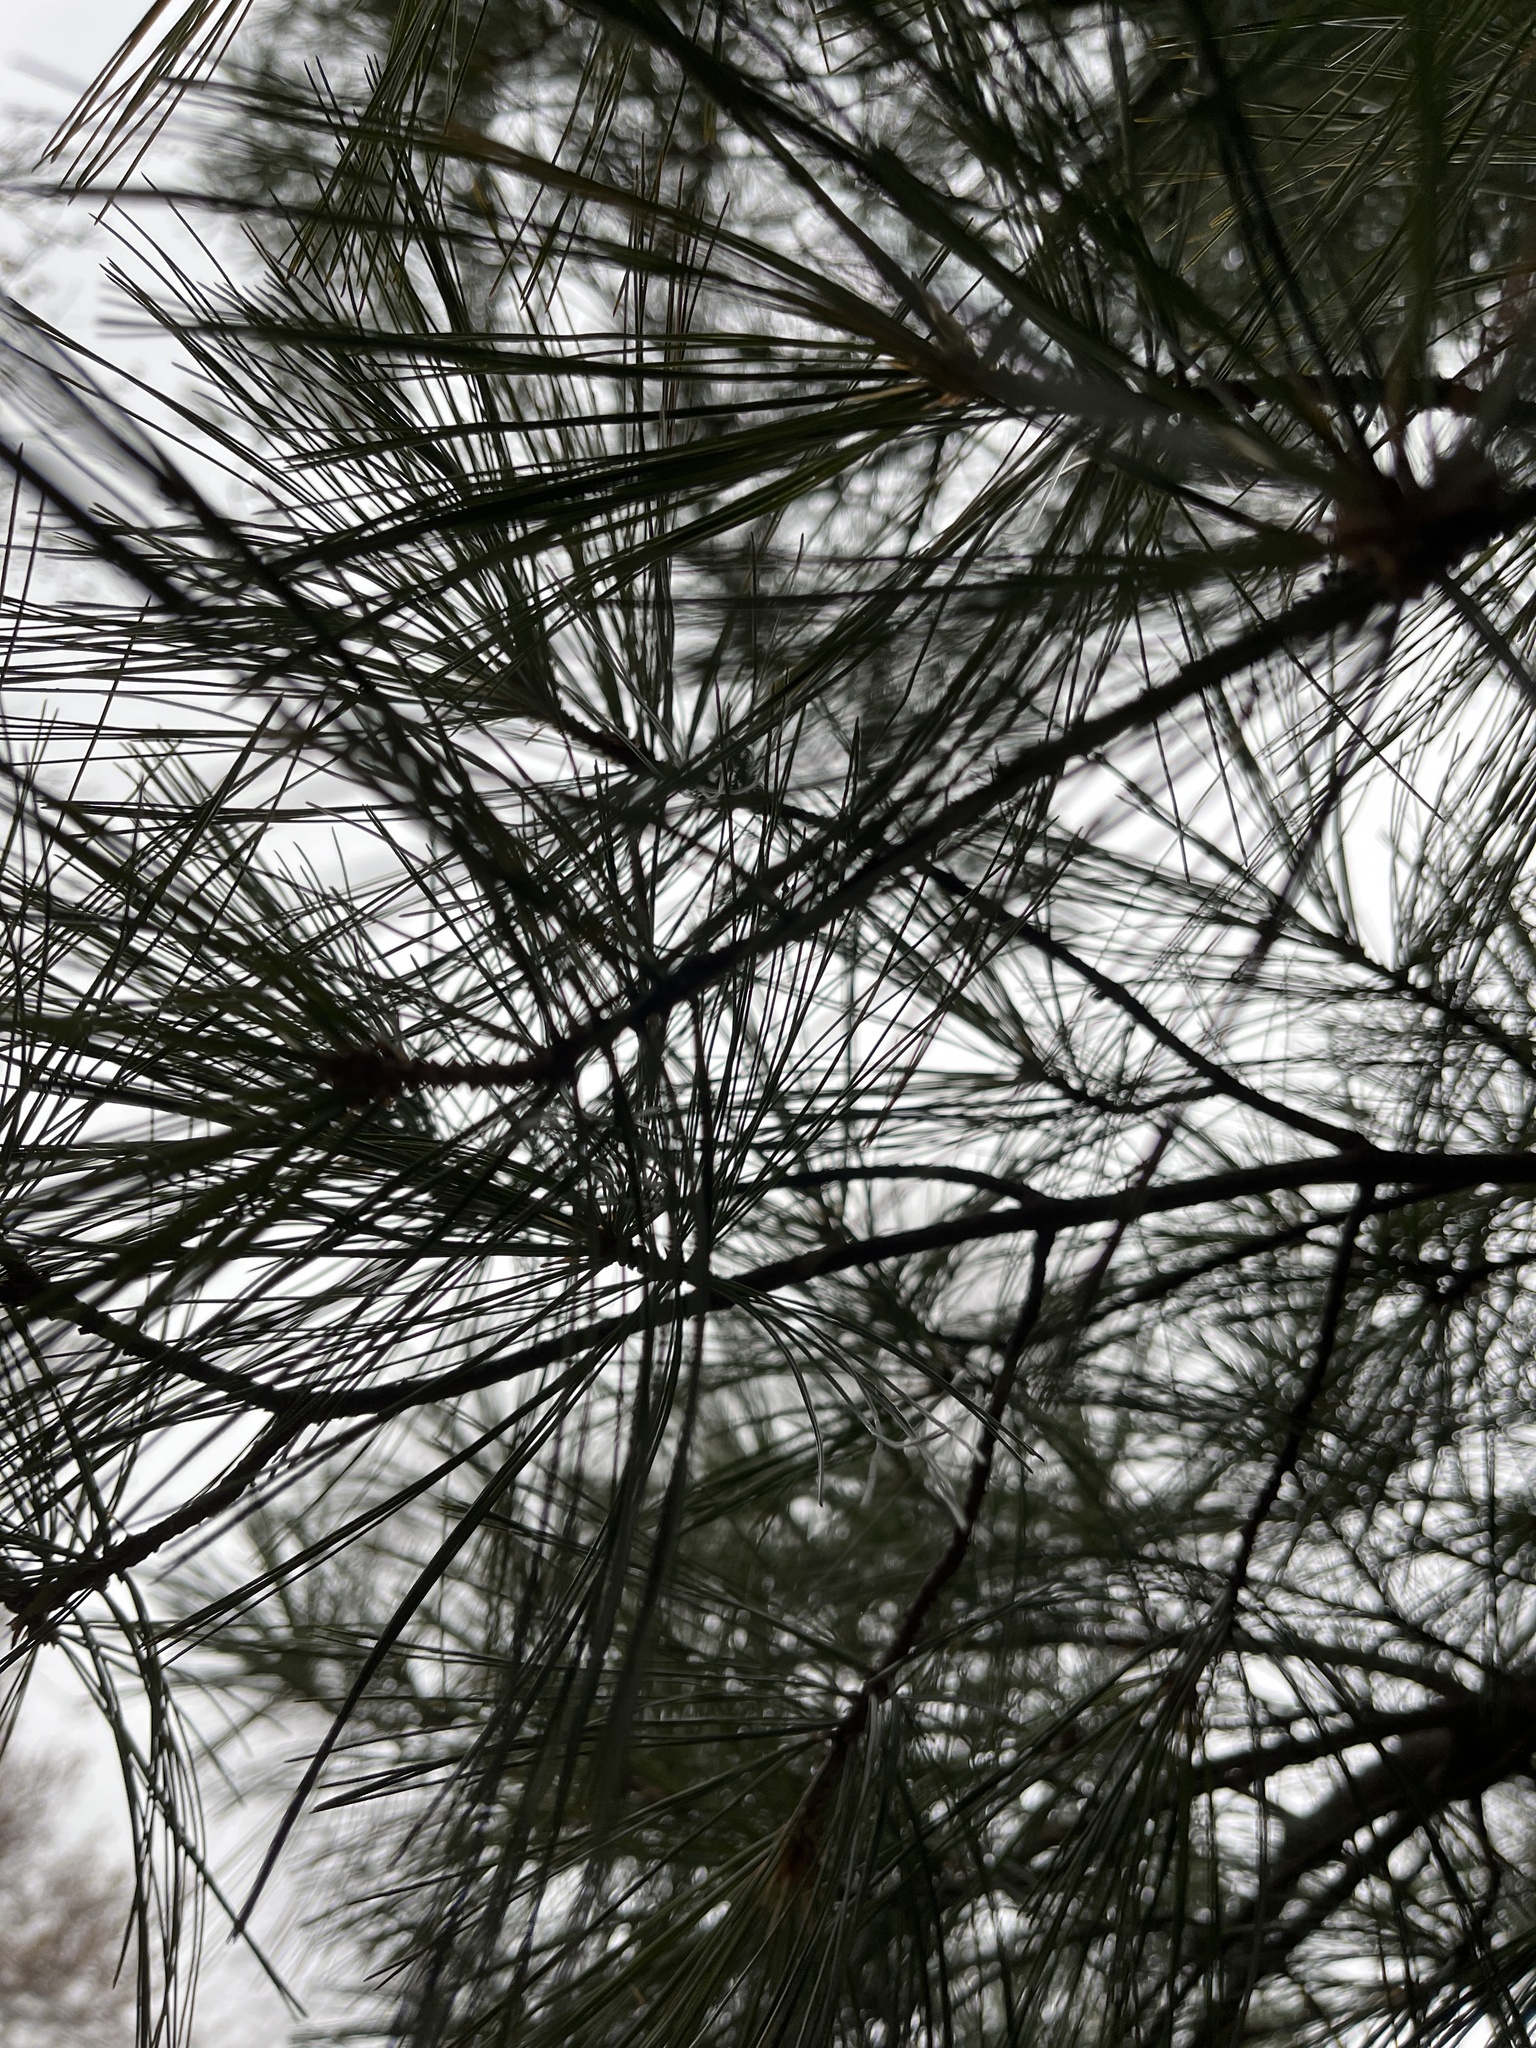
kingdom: Plantae
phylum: Tracheophyta
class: Pinopsida
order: Pinales
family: Pinaceae
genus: Pinus
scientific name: Pinus strobus
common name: Weymouth pine
